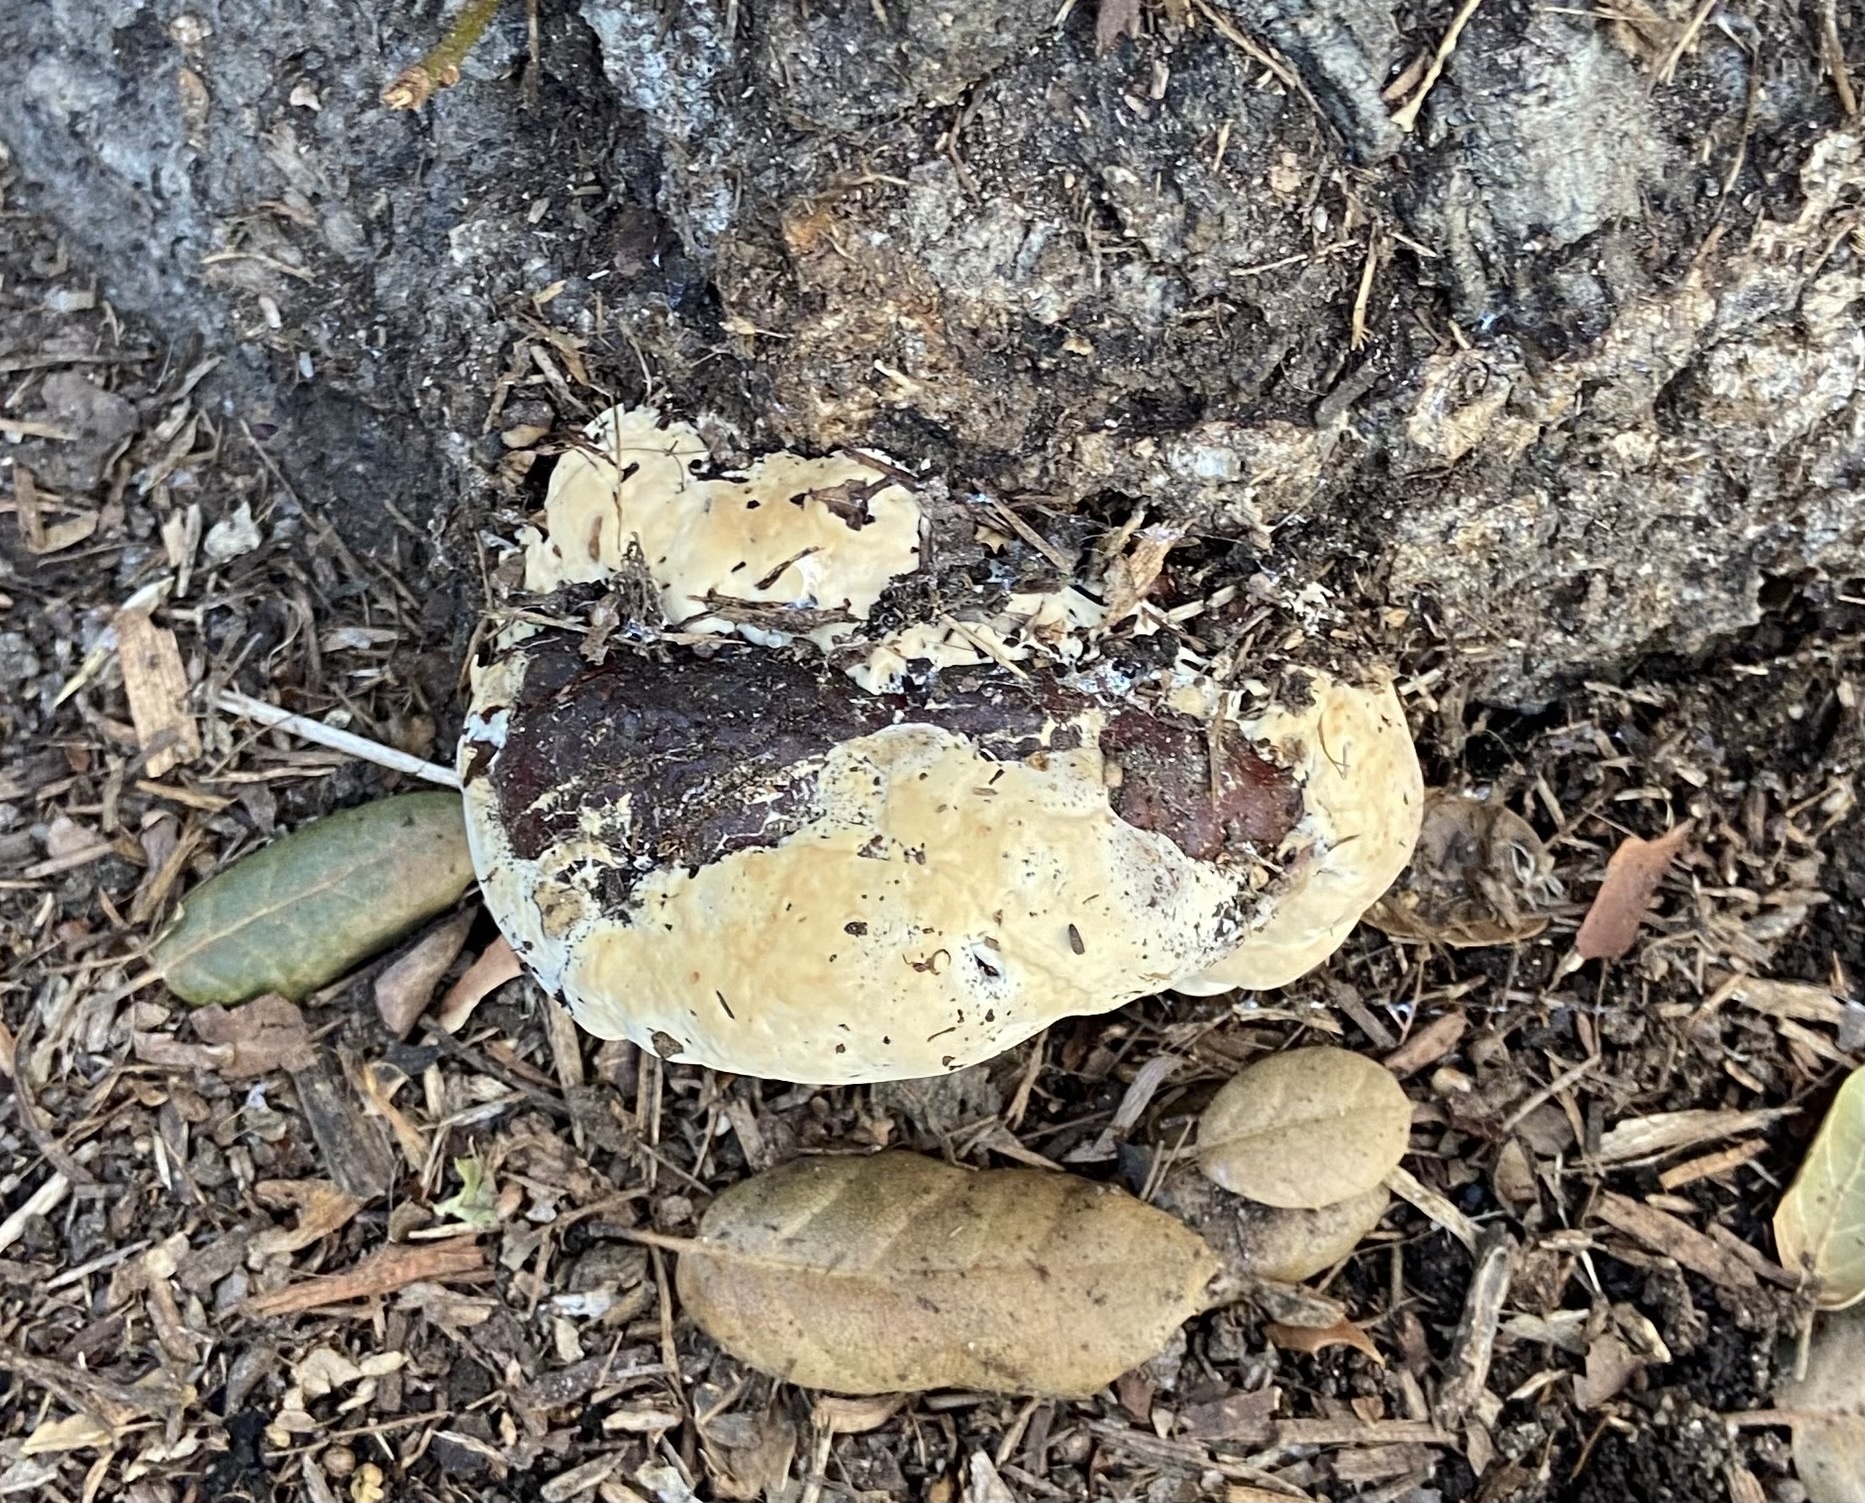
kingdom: Fungi
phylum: Basidiomycota
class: Agaricomycetes
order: Polyporales
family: Polyporaceae
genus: Ganoderma
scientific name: Ganoderma polychromum
